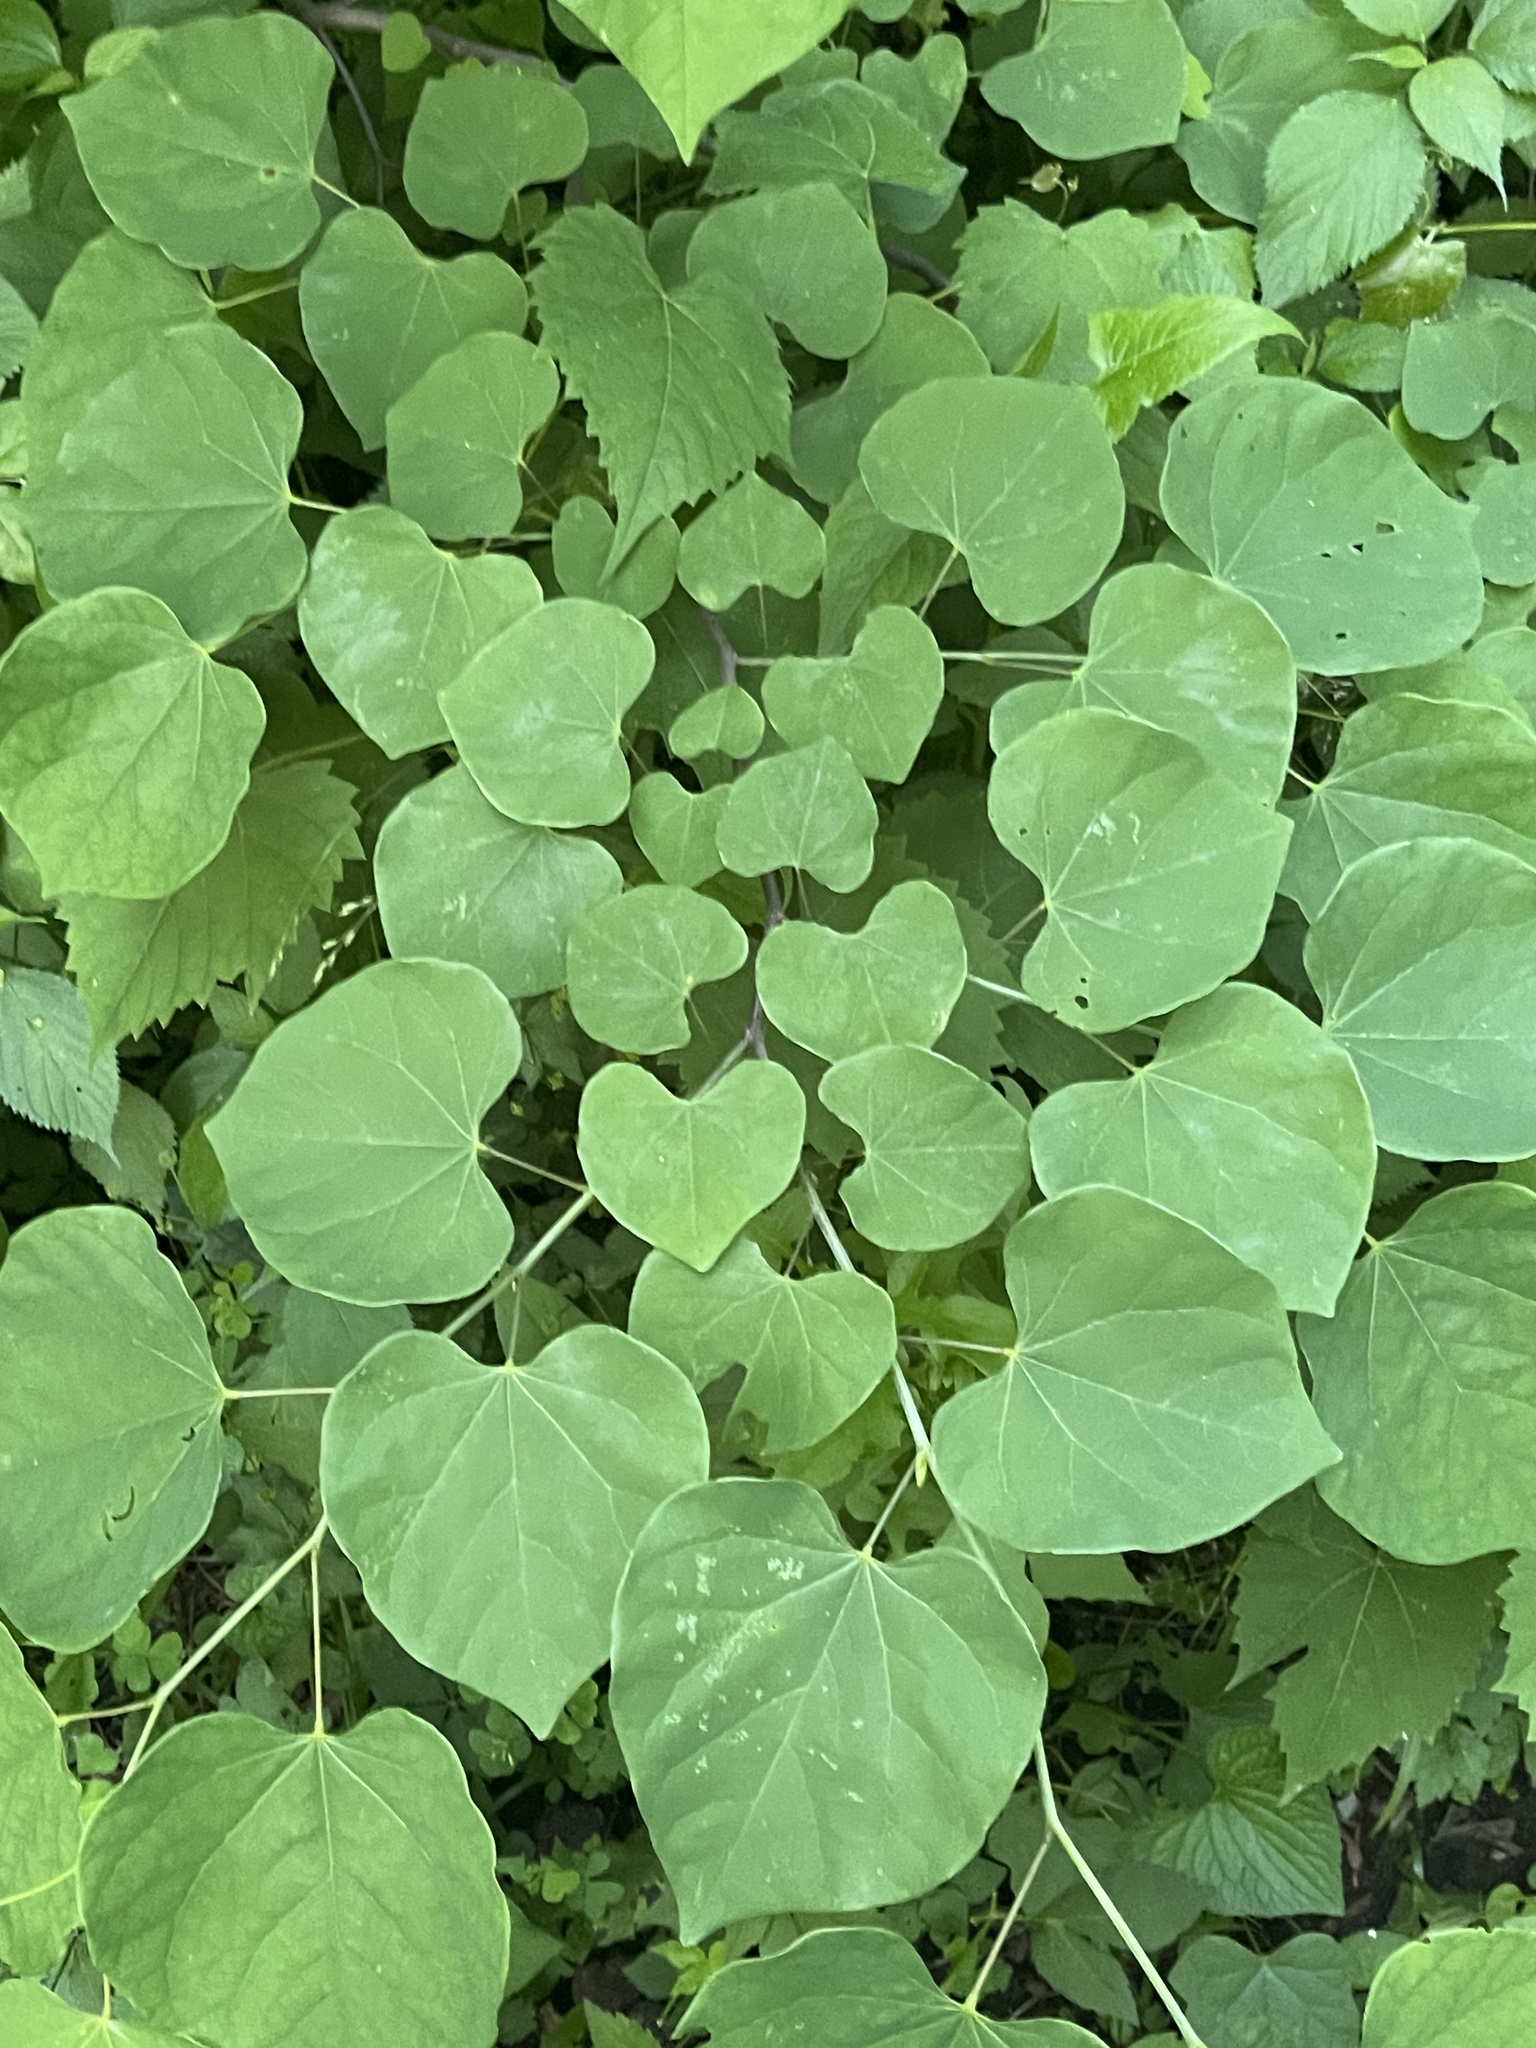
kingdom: Plantae
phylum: Tracheophyta
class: Magnoliopsida
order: Fabales
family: Fabaceae
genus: Cercis
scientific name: Cercis canadensis
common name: Eastern redbud
